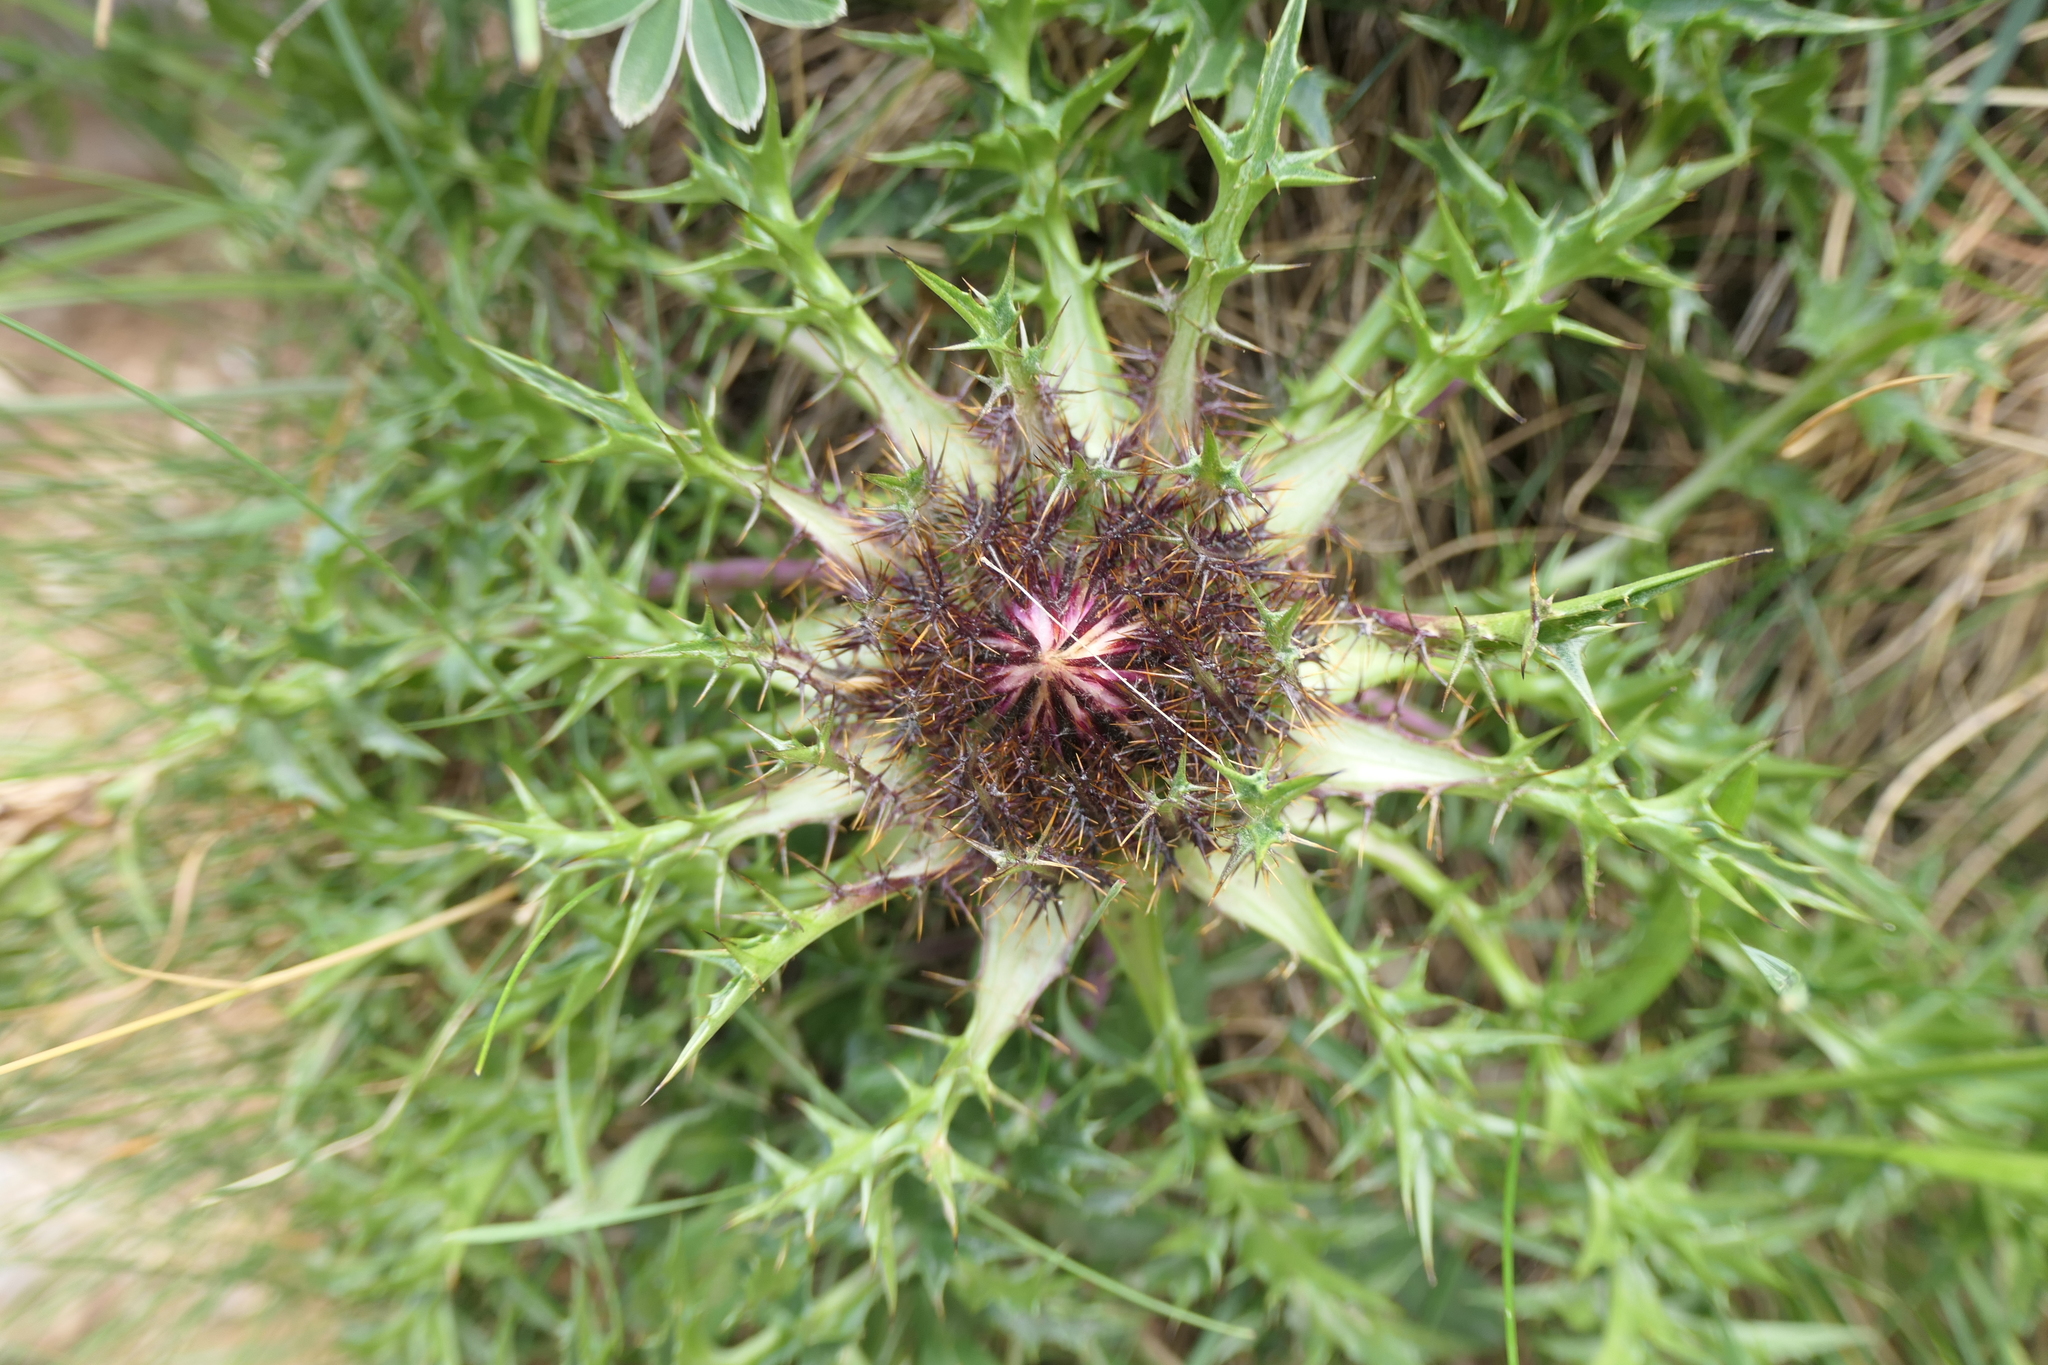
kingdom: Plantae
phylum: Tracheophyta
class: Magnoliopsida
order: Asterales
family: Asteraceae
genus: Carlina
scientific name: Carlina acaulis
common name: Stemless carline thistle
